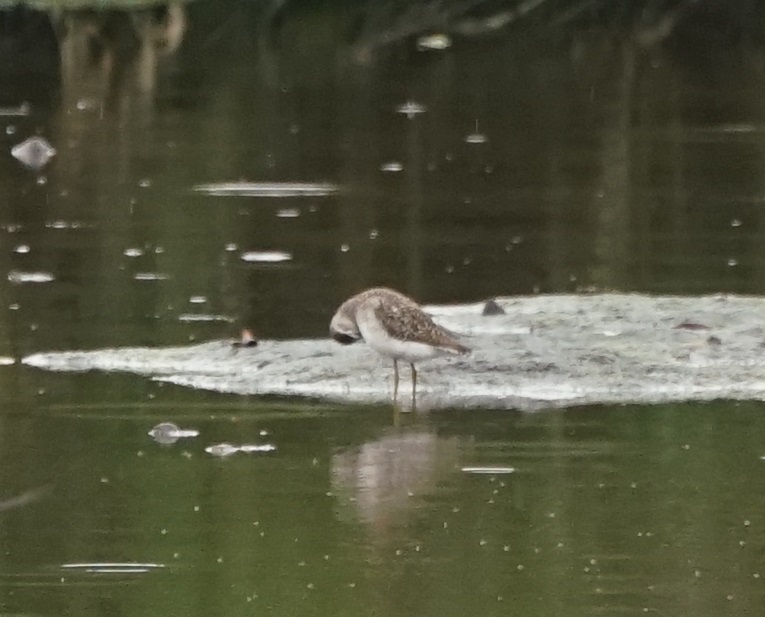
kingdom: Animalia
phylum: Chordata
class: Aves
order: Charadriiformes
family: Scolopacidae
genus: Tringa
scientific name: Tringa glareola
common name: Wood sandpiper
